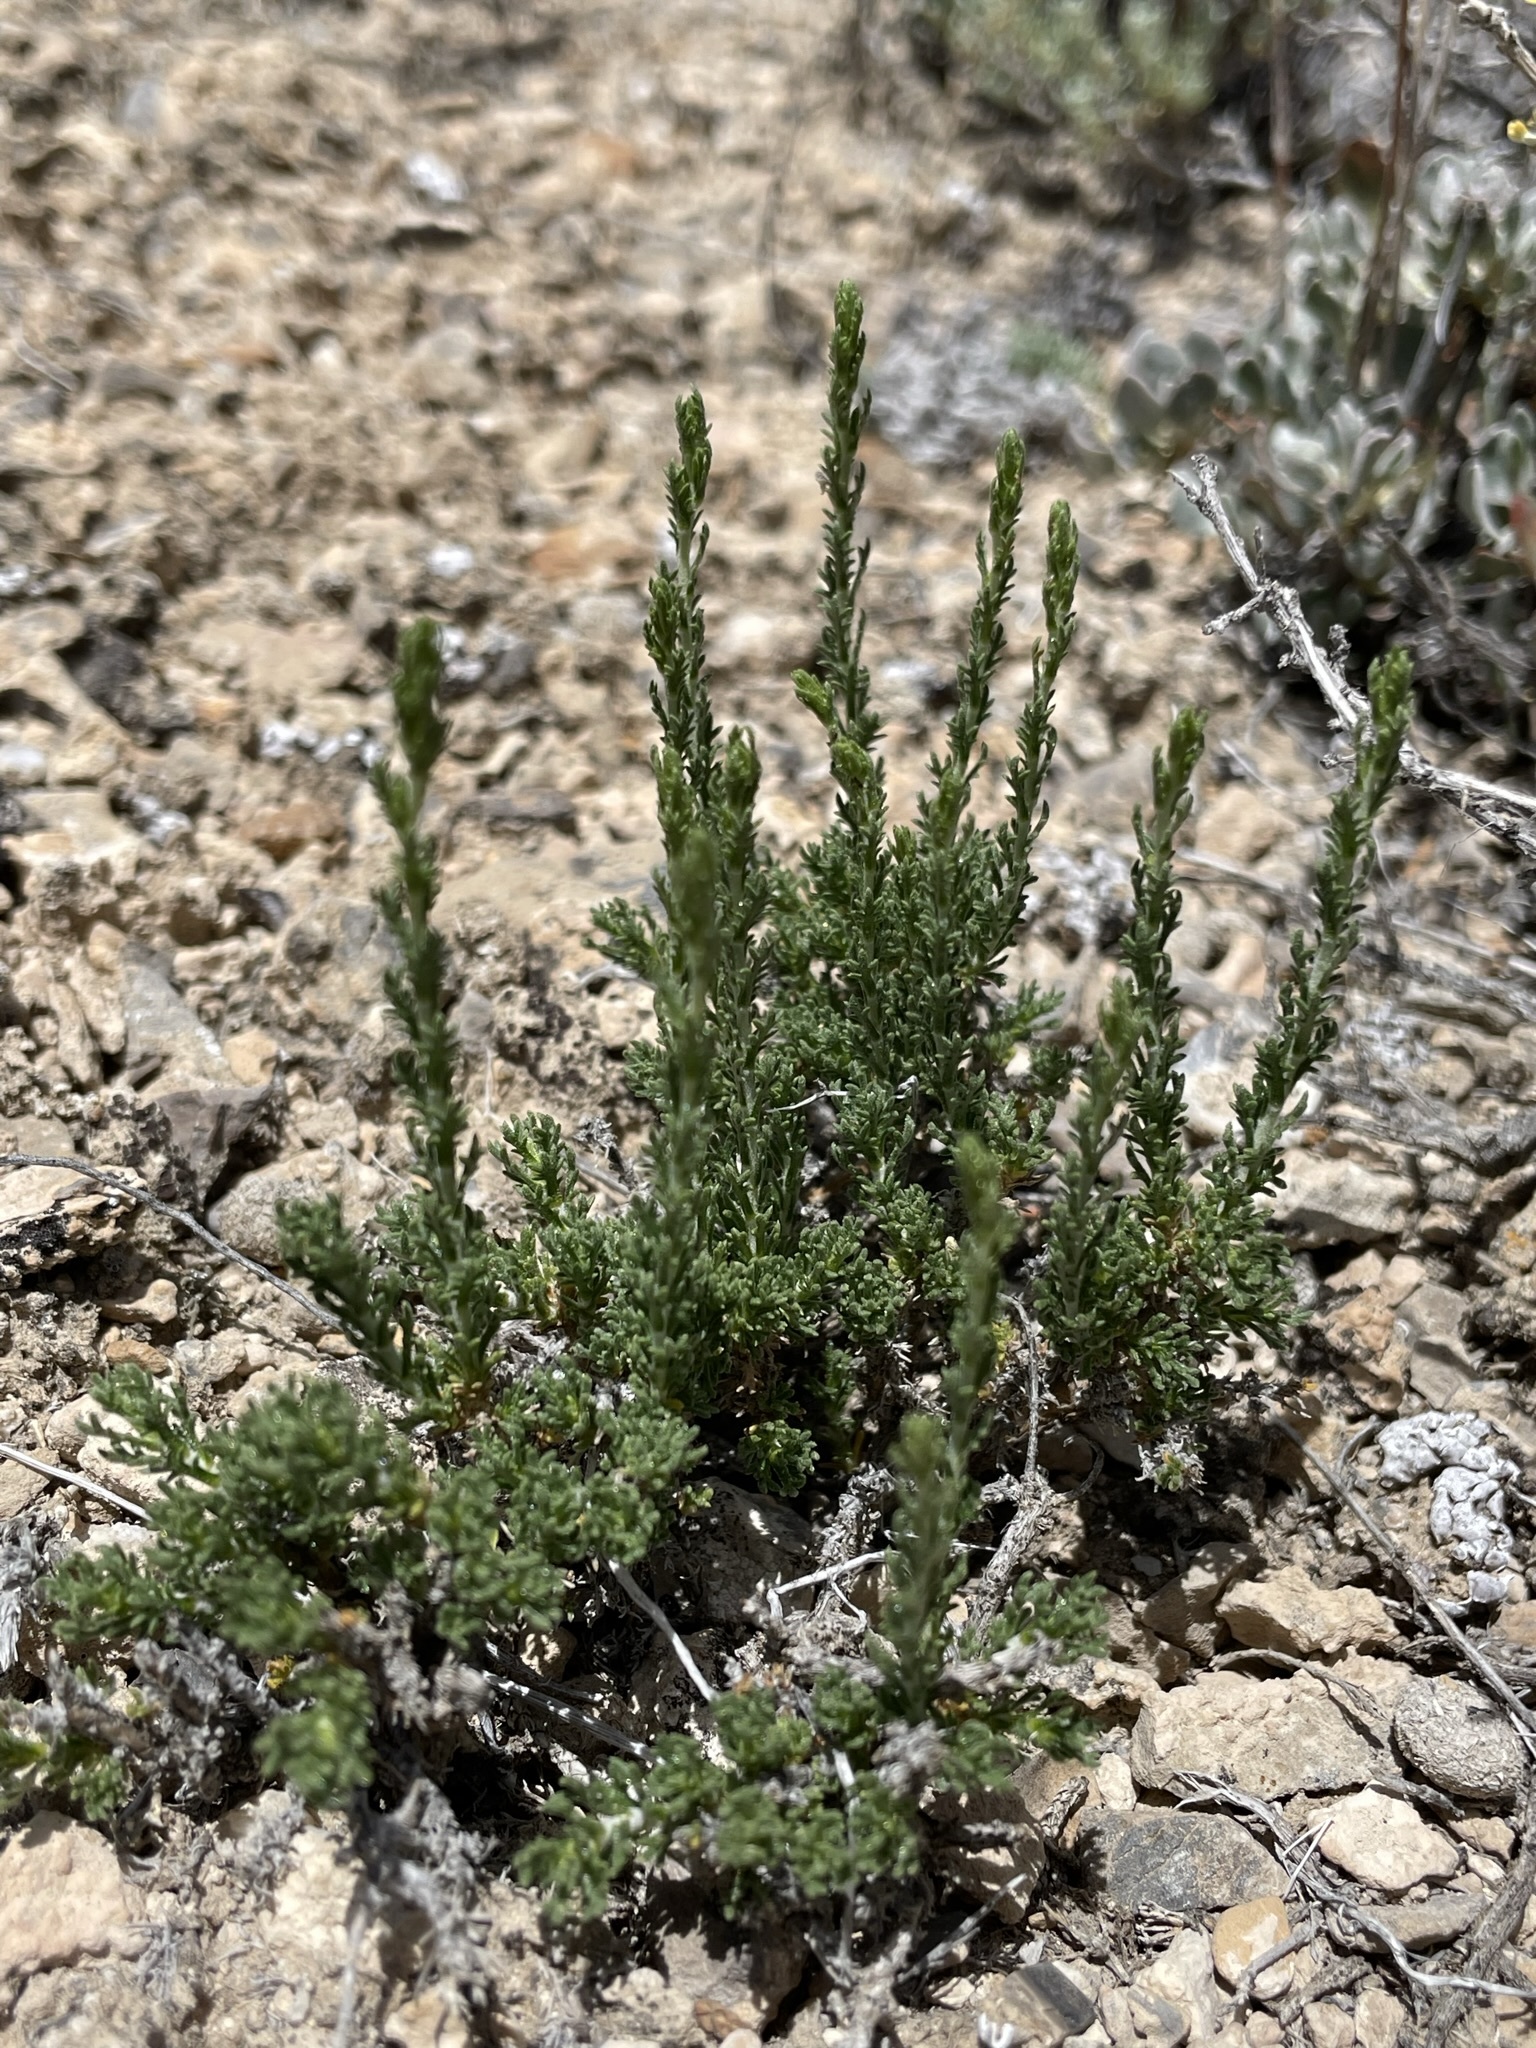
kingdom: Plantae
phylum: Tracheophyta
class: Magnoliopsida
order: Asterales
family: Asteraceae
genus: Artemisia
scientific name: Artemisia pygmaea
